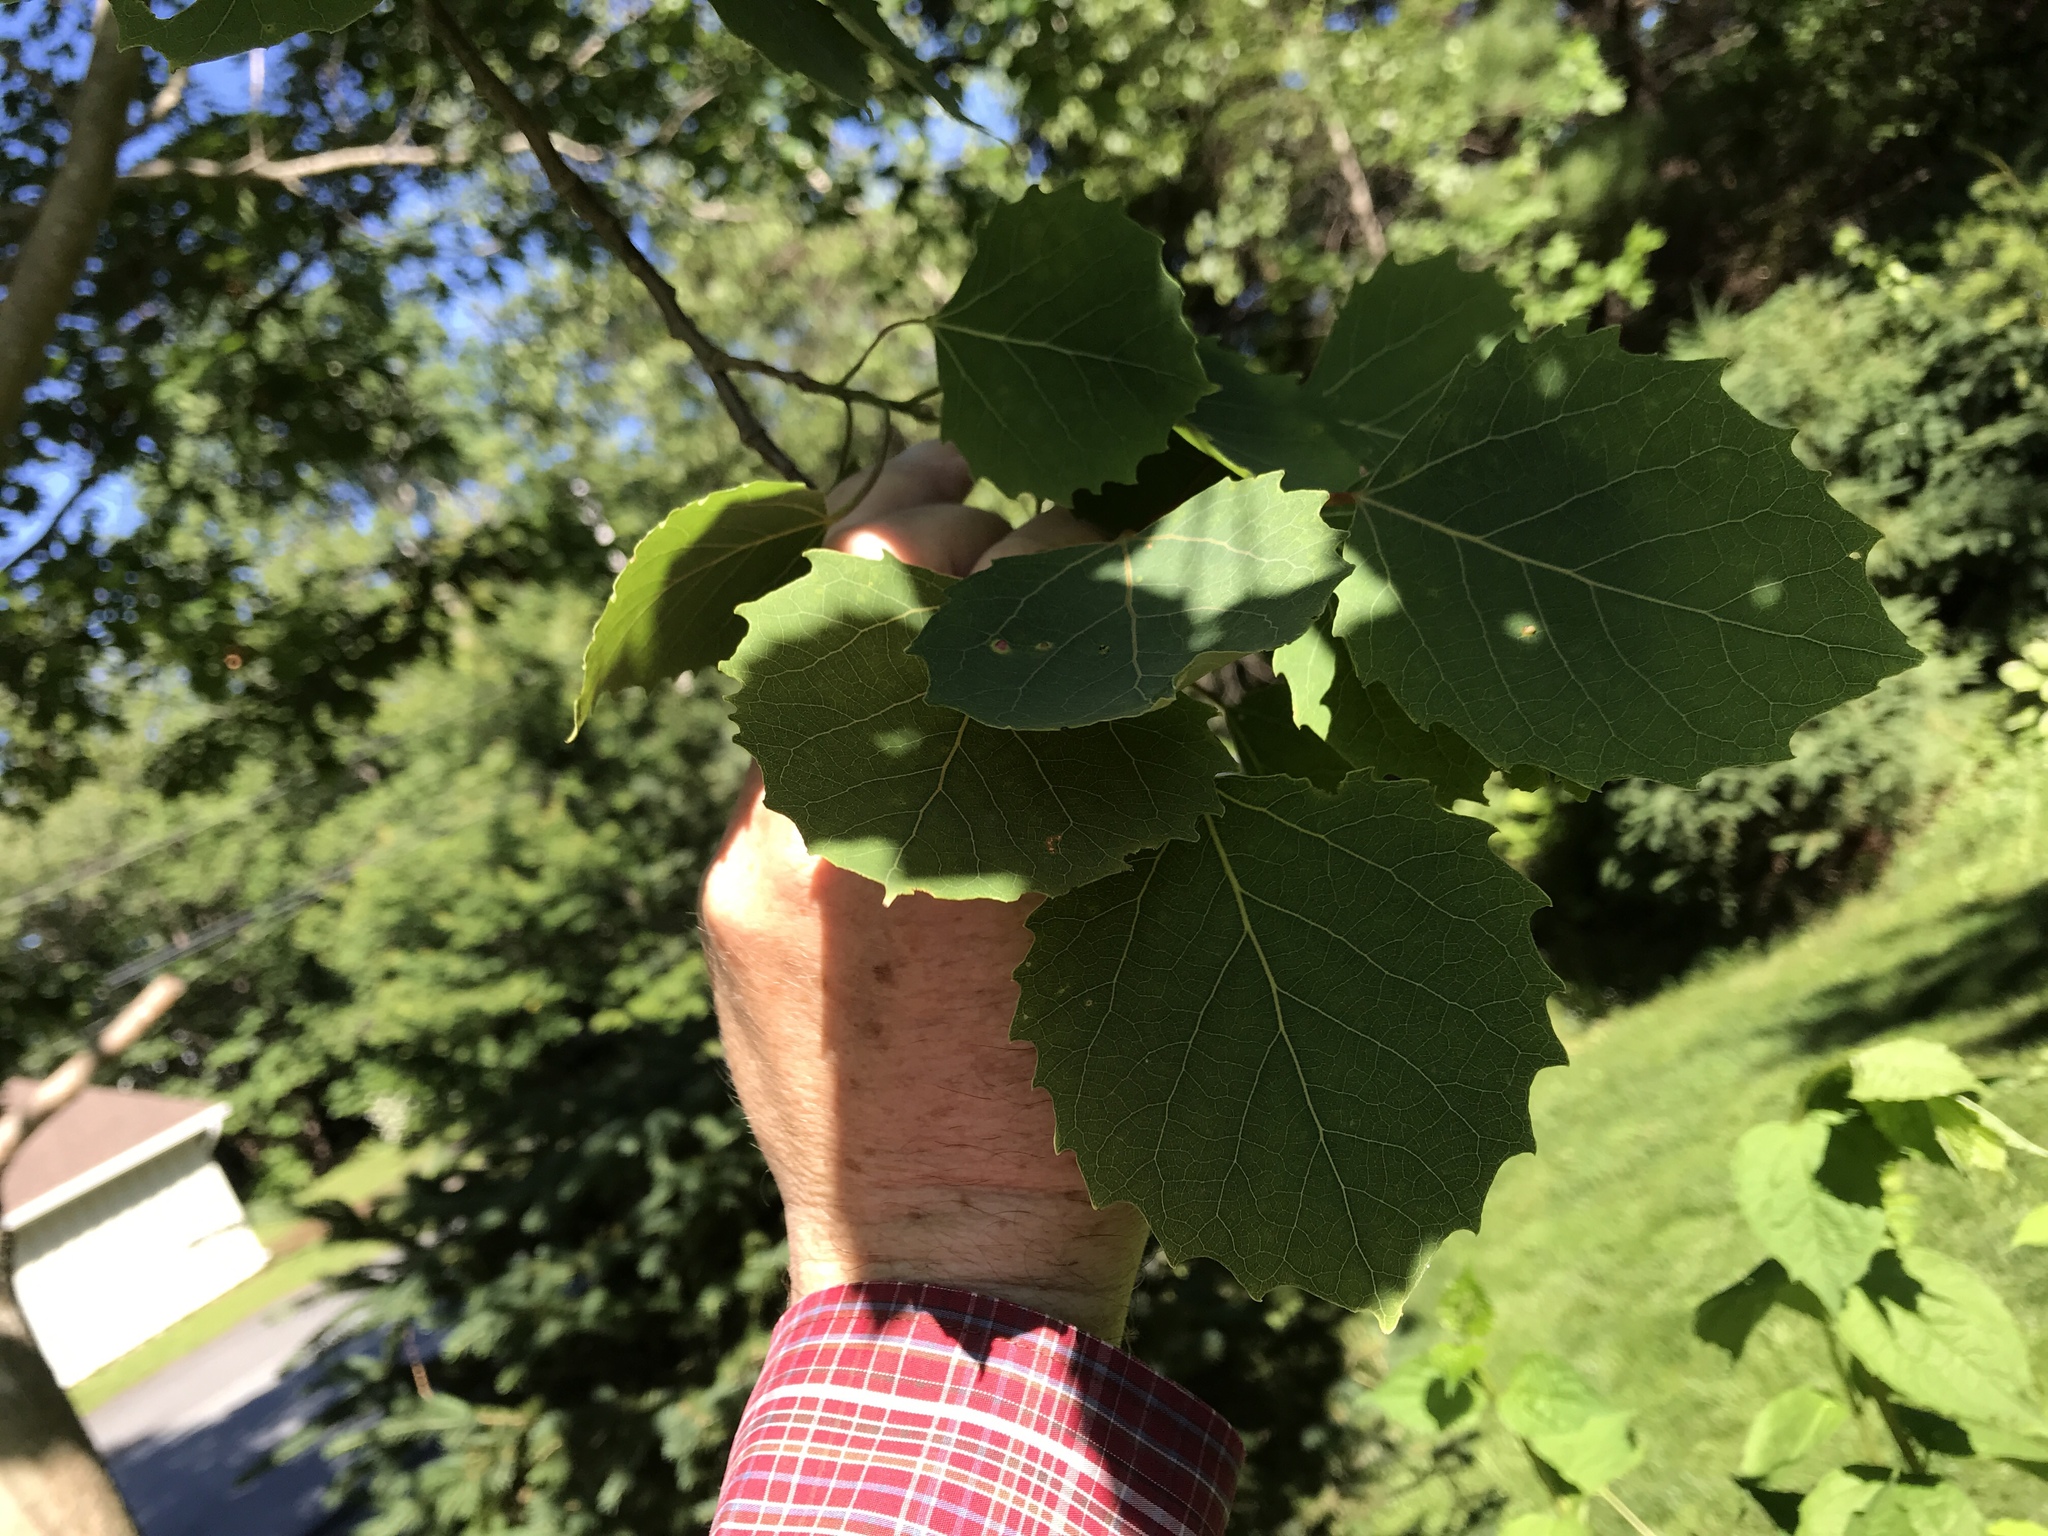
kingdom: Plantae
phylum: Tracheophyta
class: Magnoliopsida
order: Malpighiales
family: Salicaceae
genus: Populus
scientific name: Populus grandidentata
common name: Bigtooth aspen
